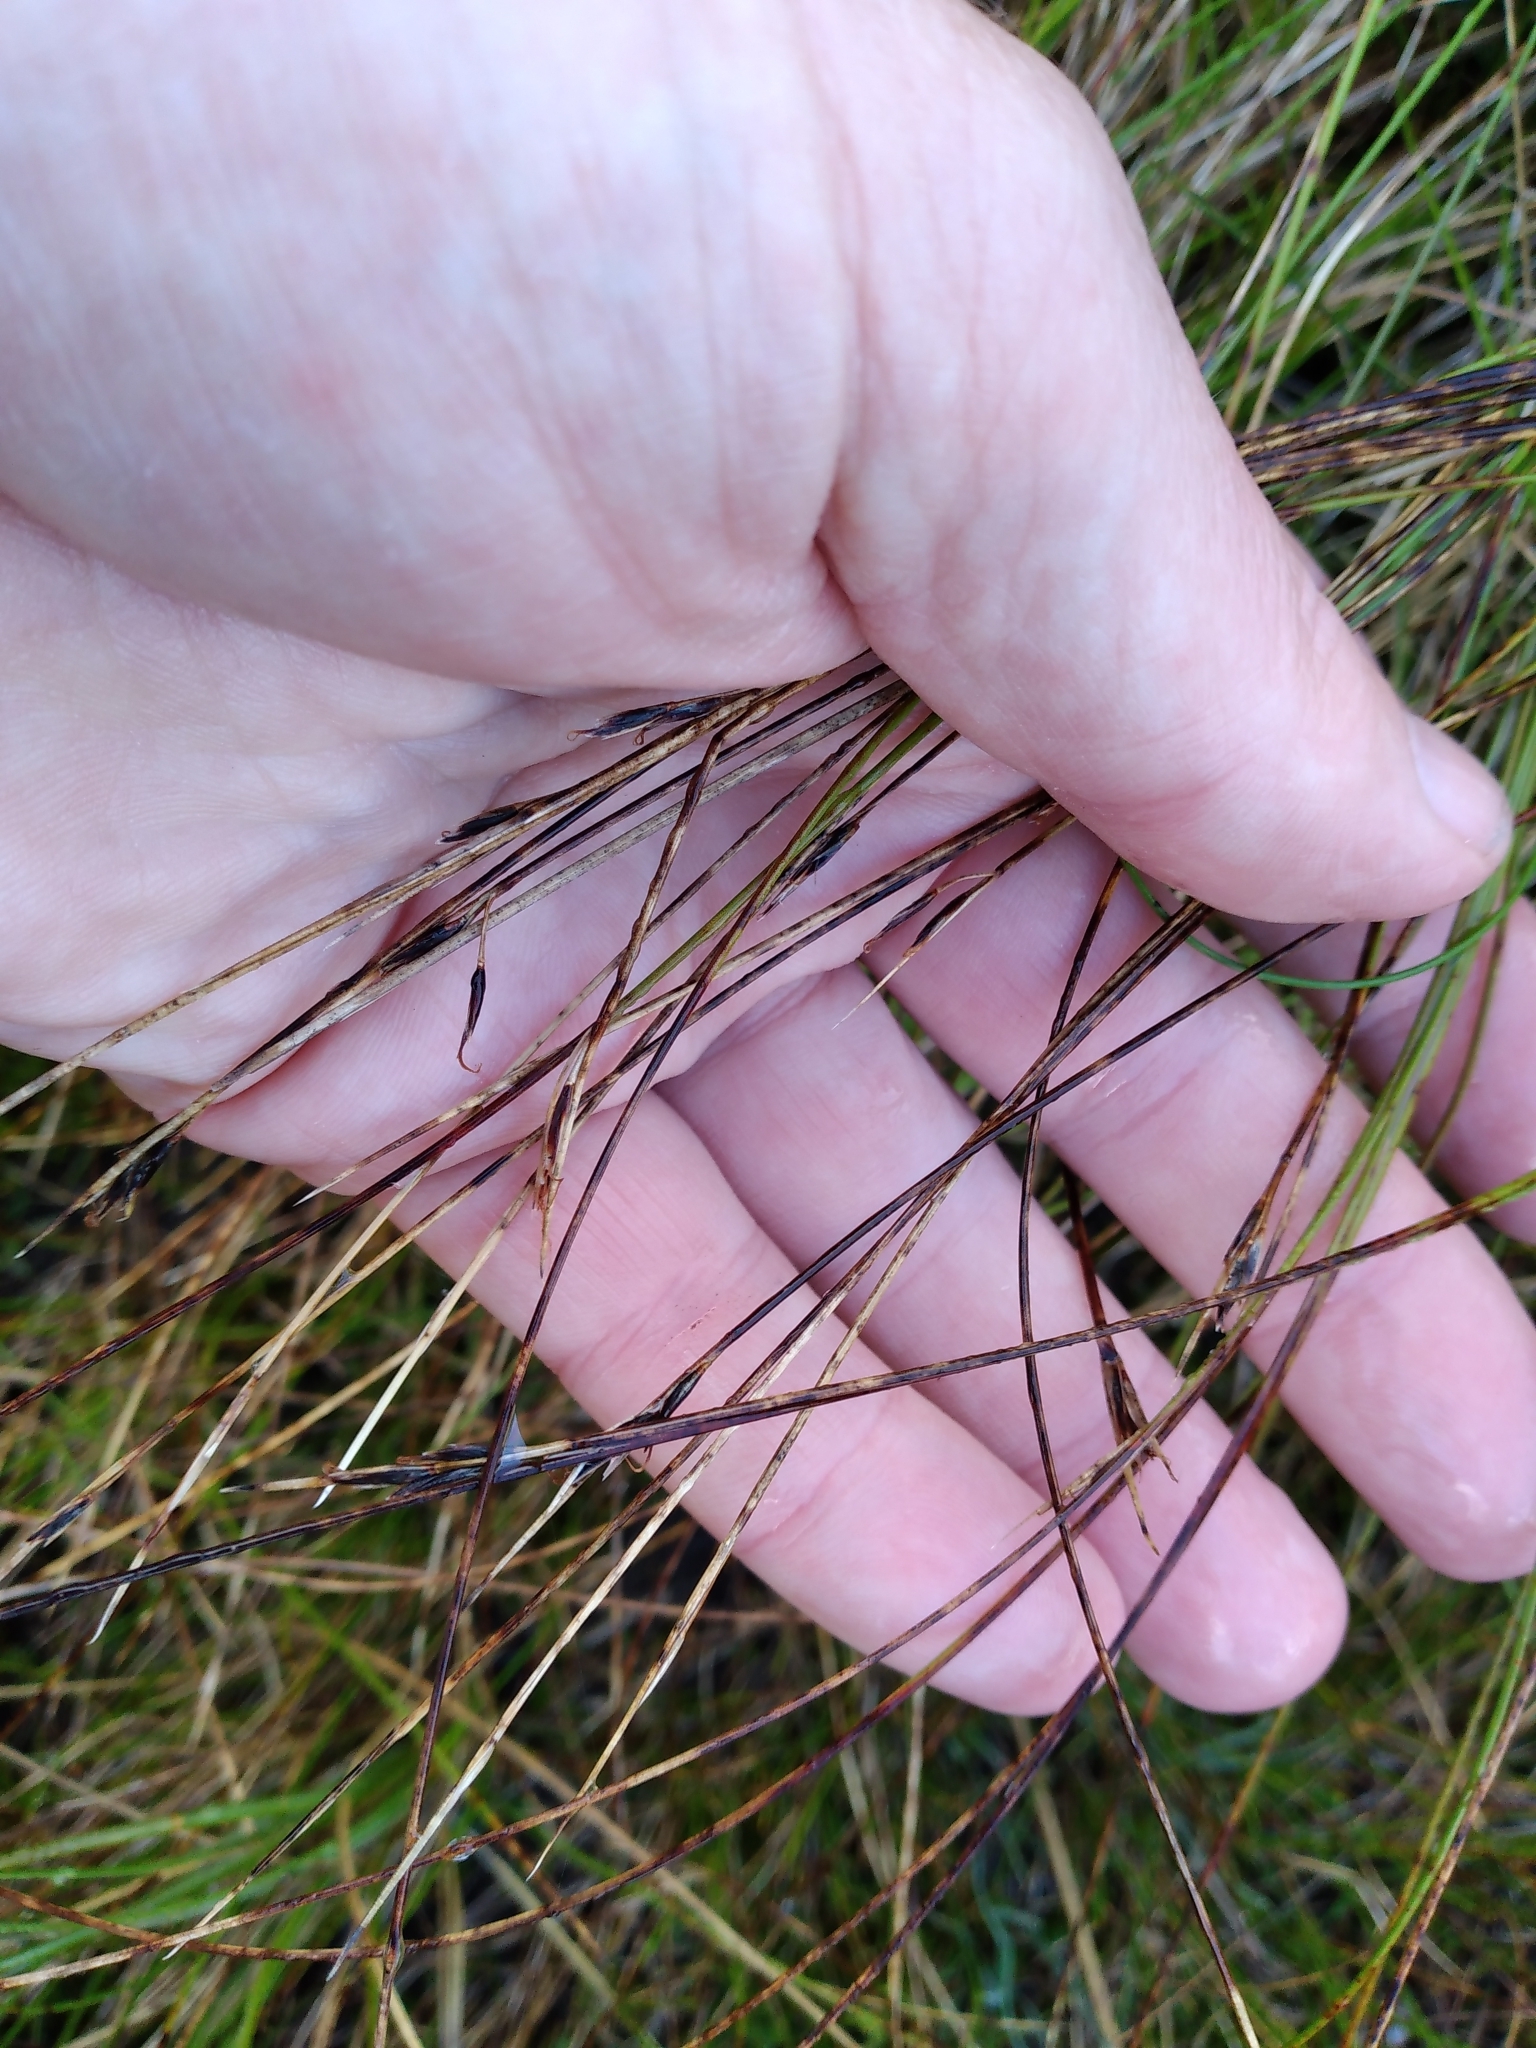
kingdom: Plantae
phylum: Tracheophyta
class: Liliopsida
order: Poales
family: Cyperaceae
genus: Schoenus
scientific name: Schoenus pauciflorus
